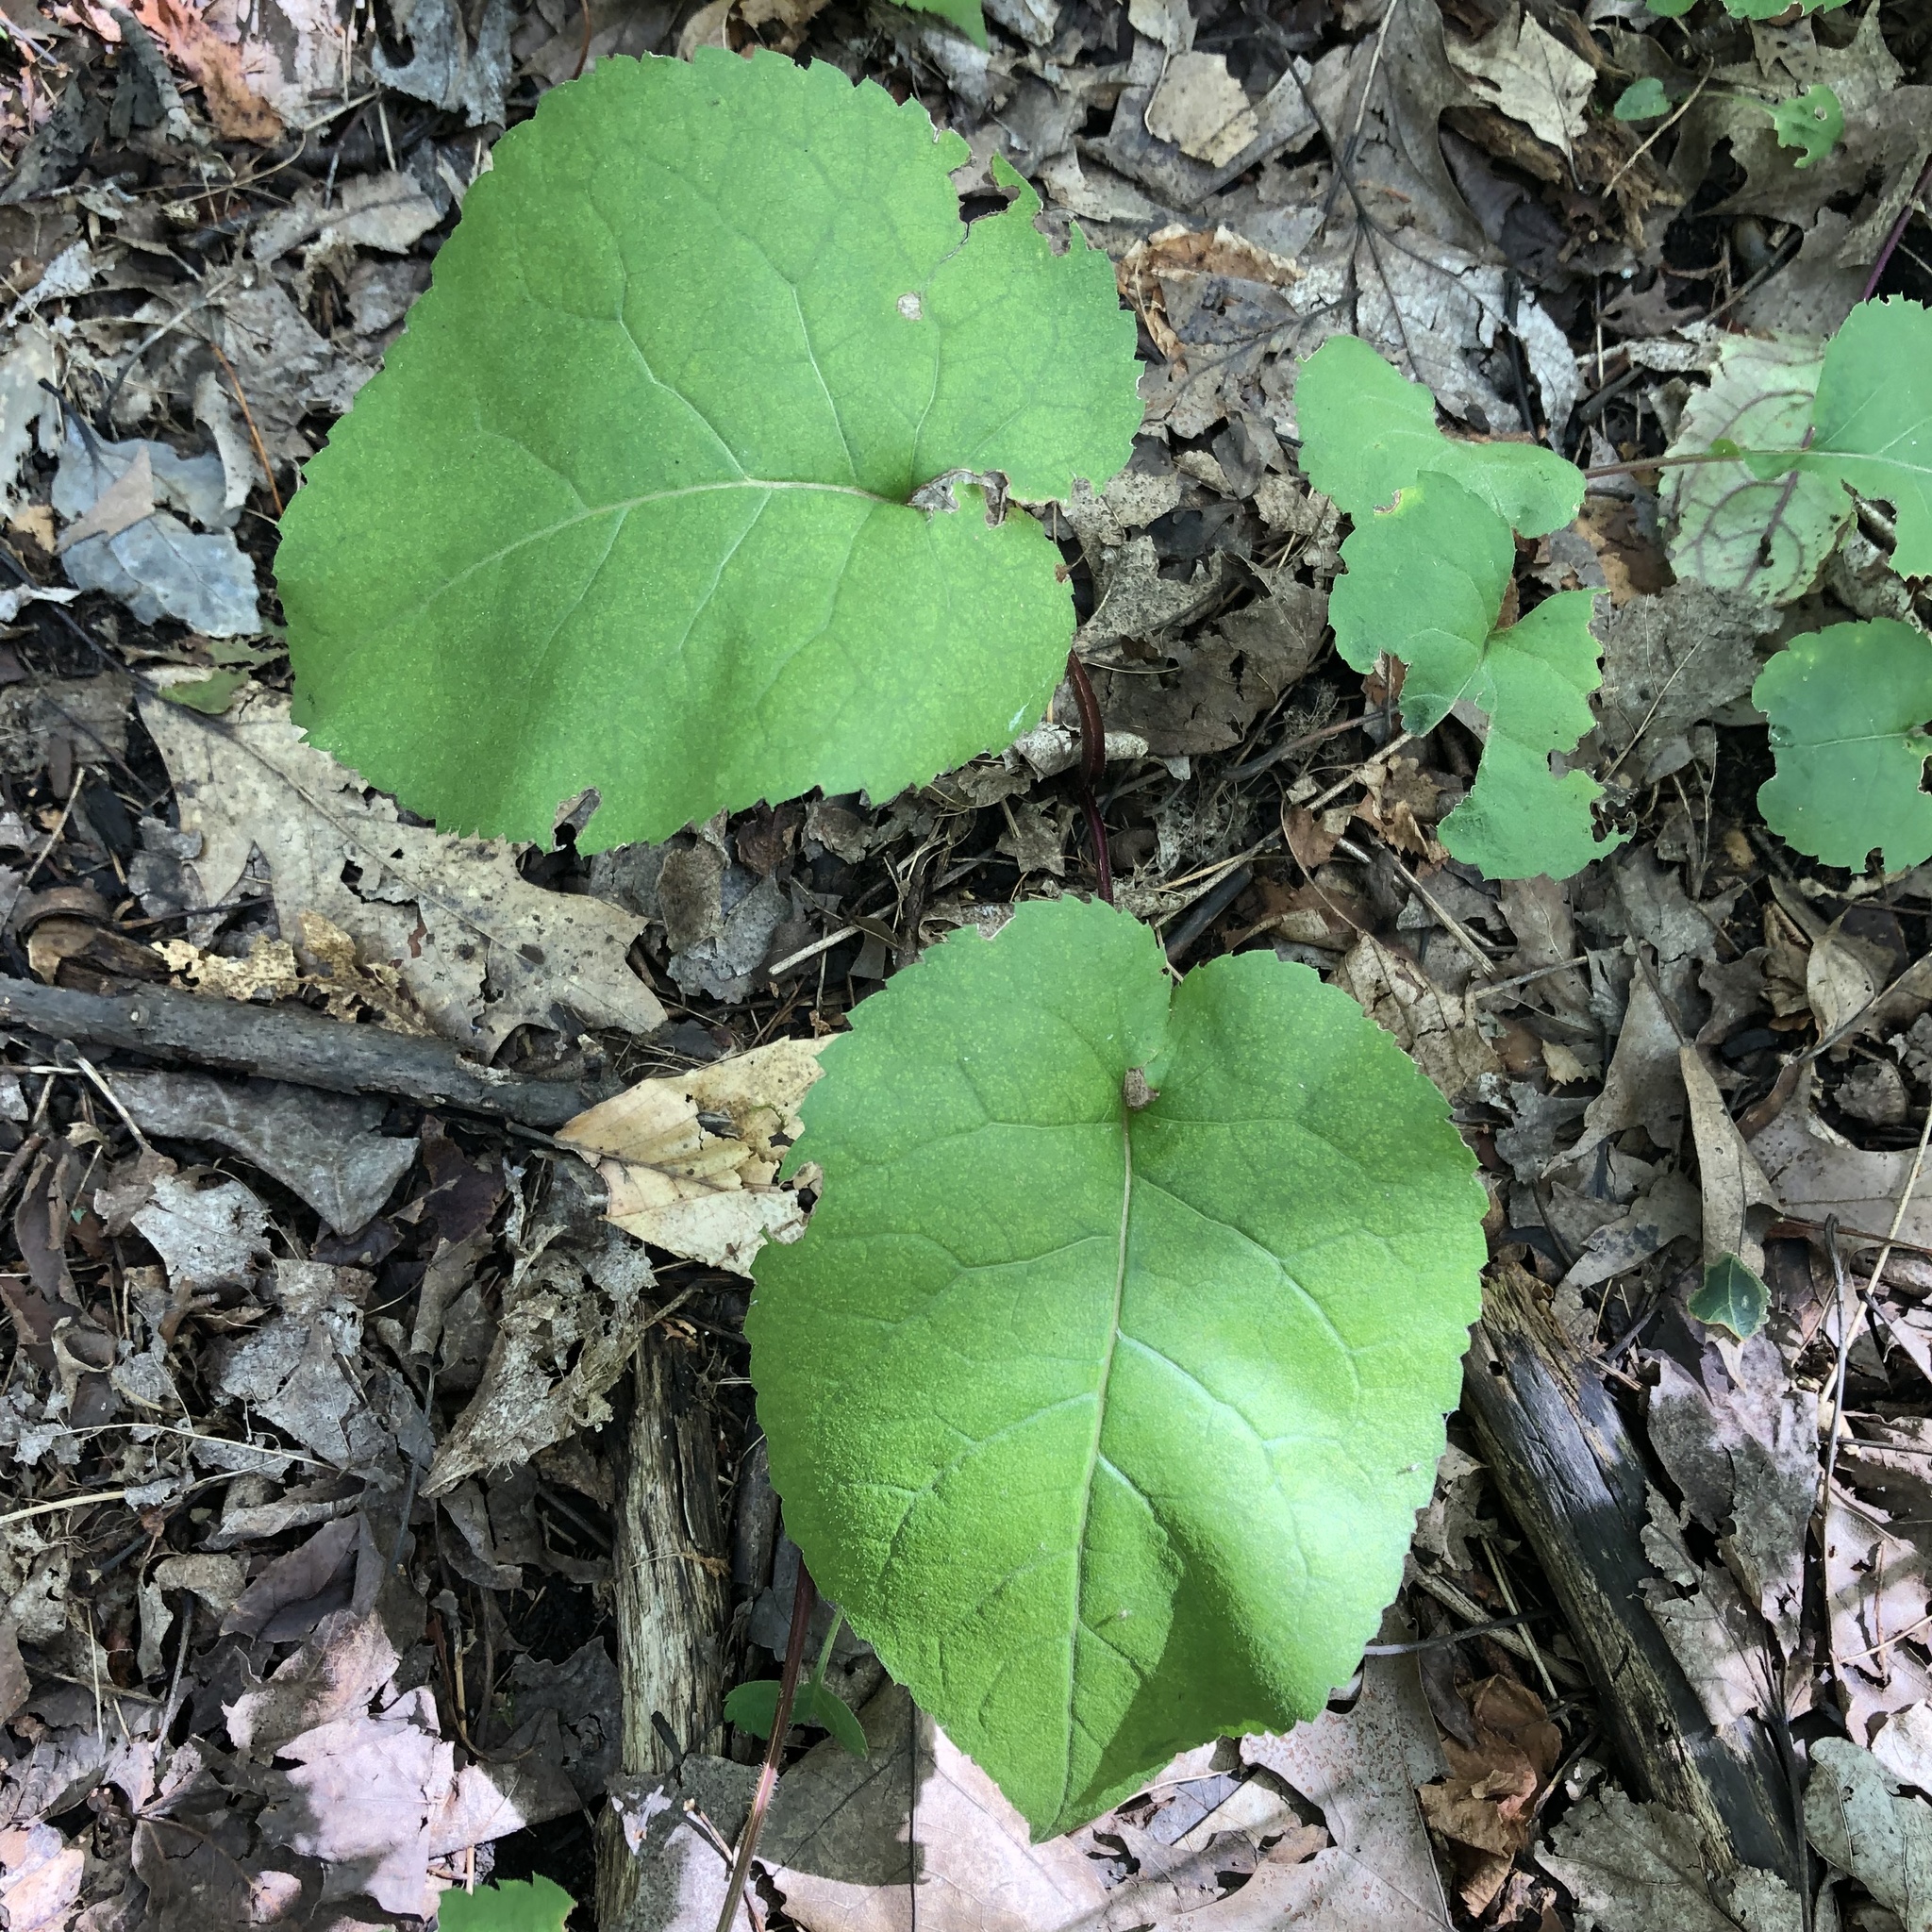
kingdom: Plantae
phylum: Tracheophyta
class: Magnoliopsida
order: Asterales
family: Asteraceae
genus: Eurybia
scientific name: Eurybia macrophylla
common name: Big-leaved aster
